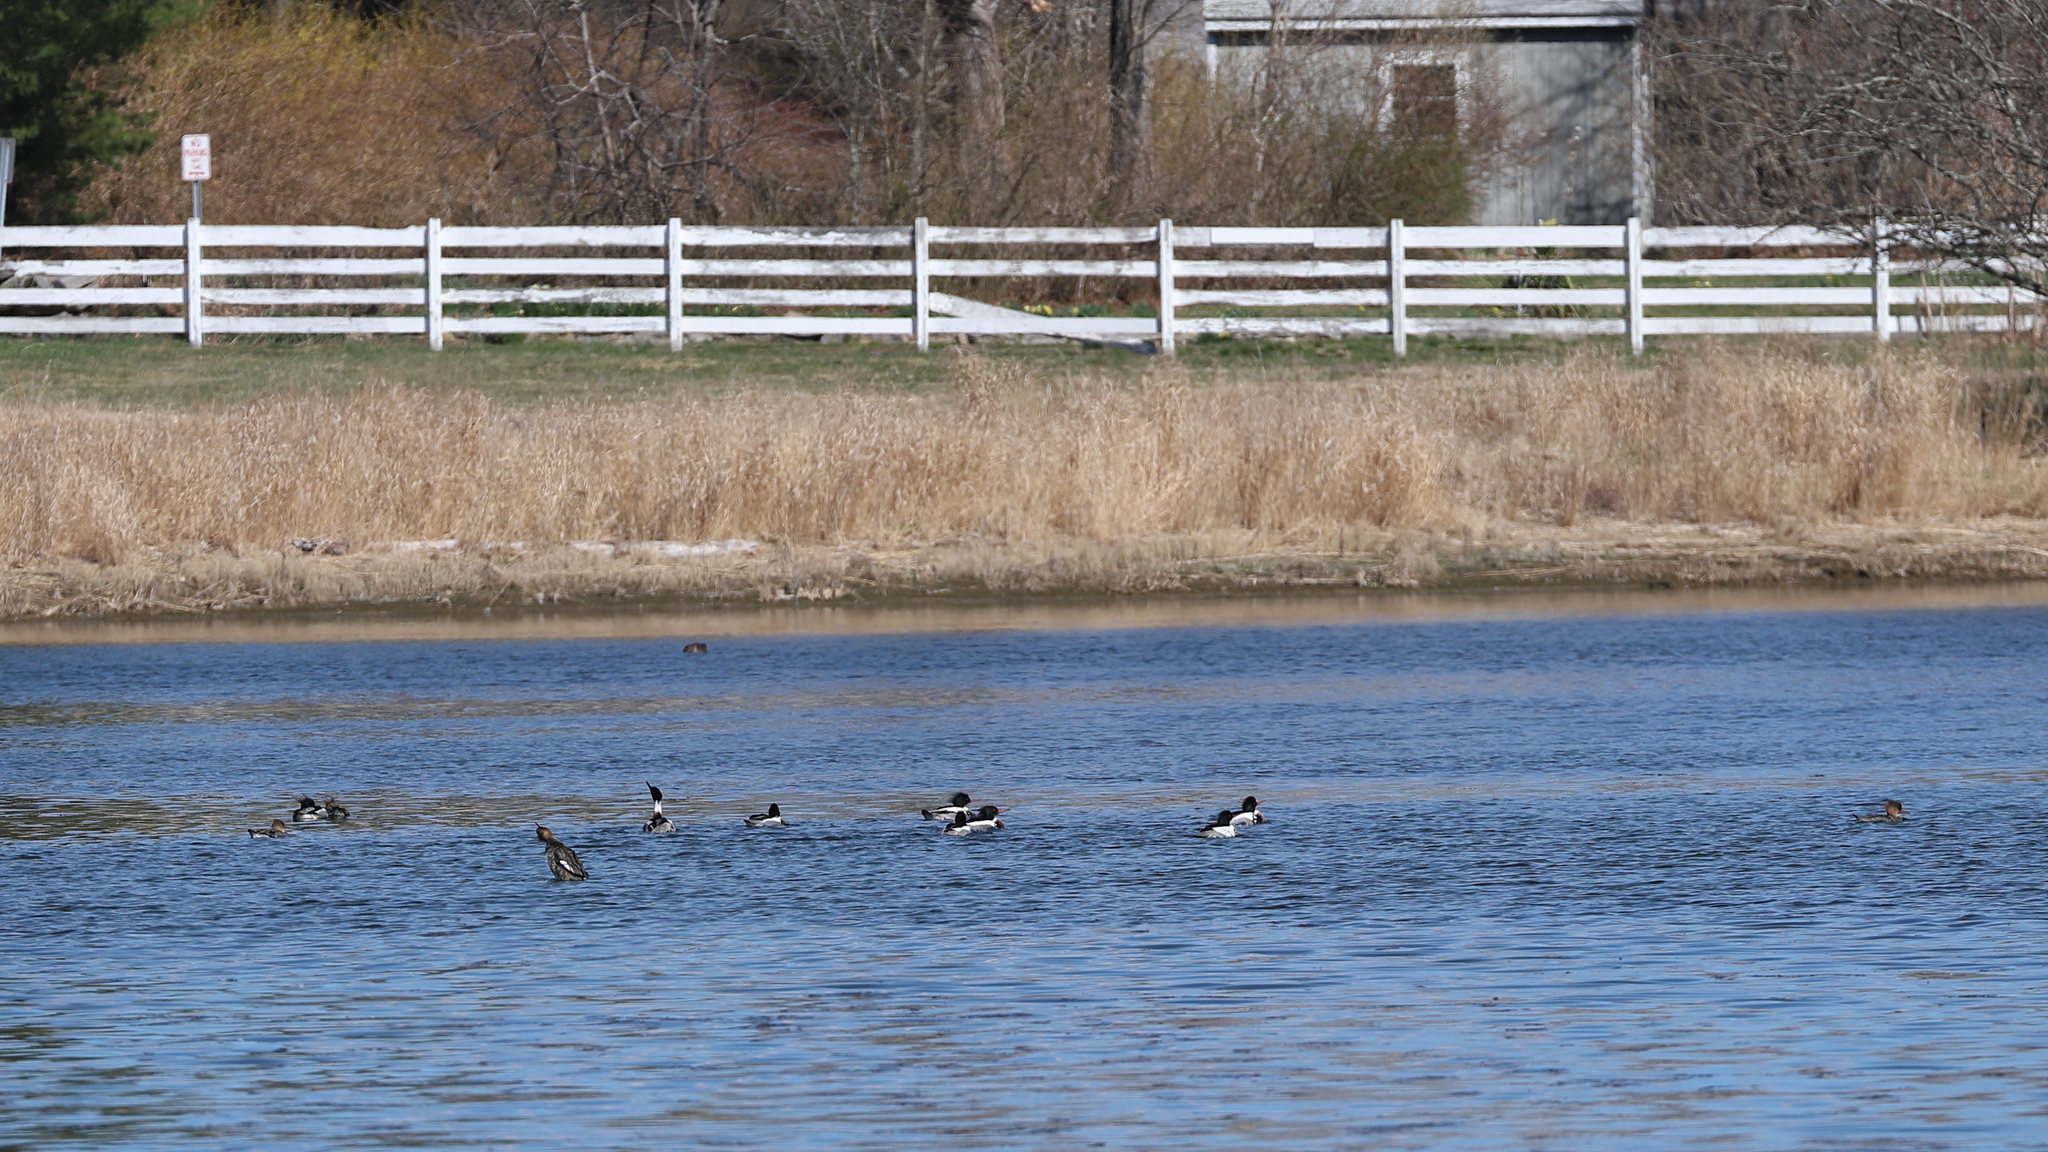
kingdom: Animalia
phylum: Chordata
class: Aves
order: Anseriformes
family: Anatidae
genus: Mergus
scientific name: Mergus serrator
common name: Red-breasted merganser
